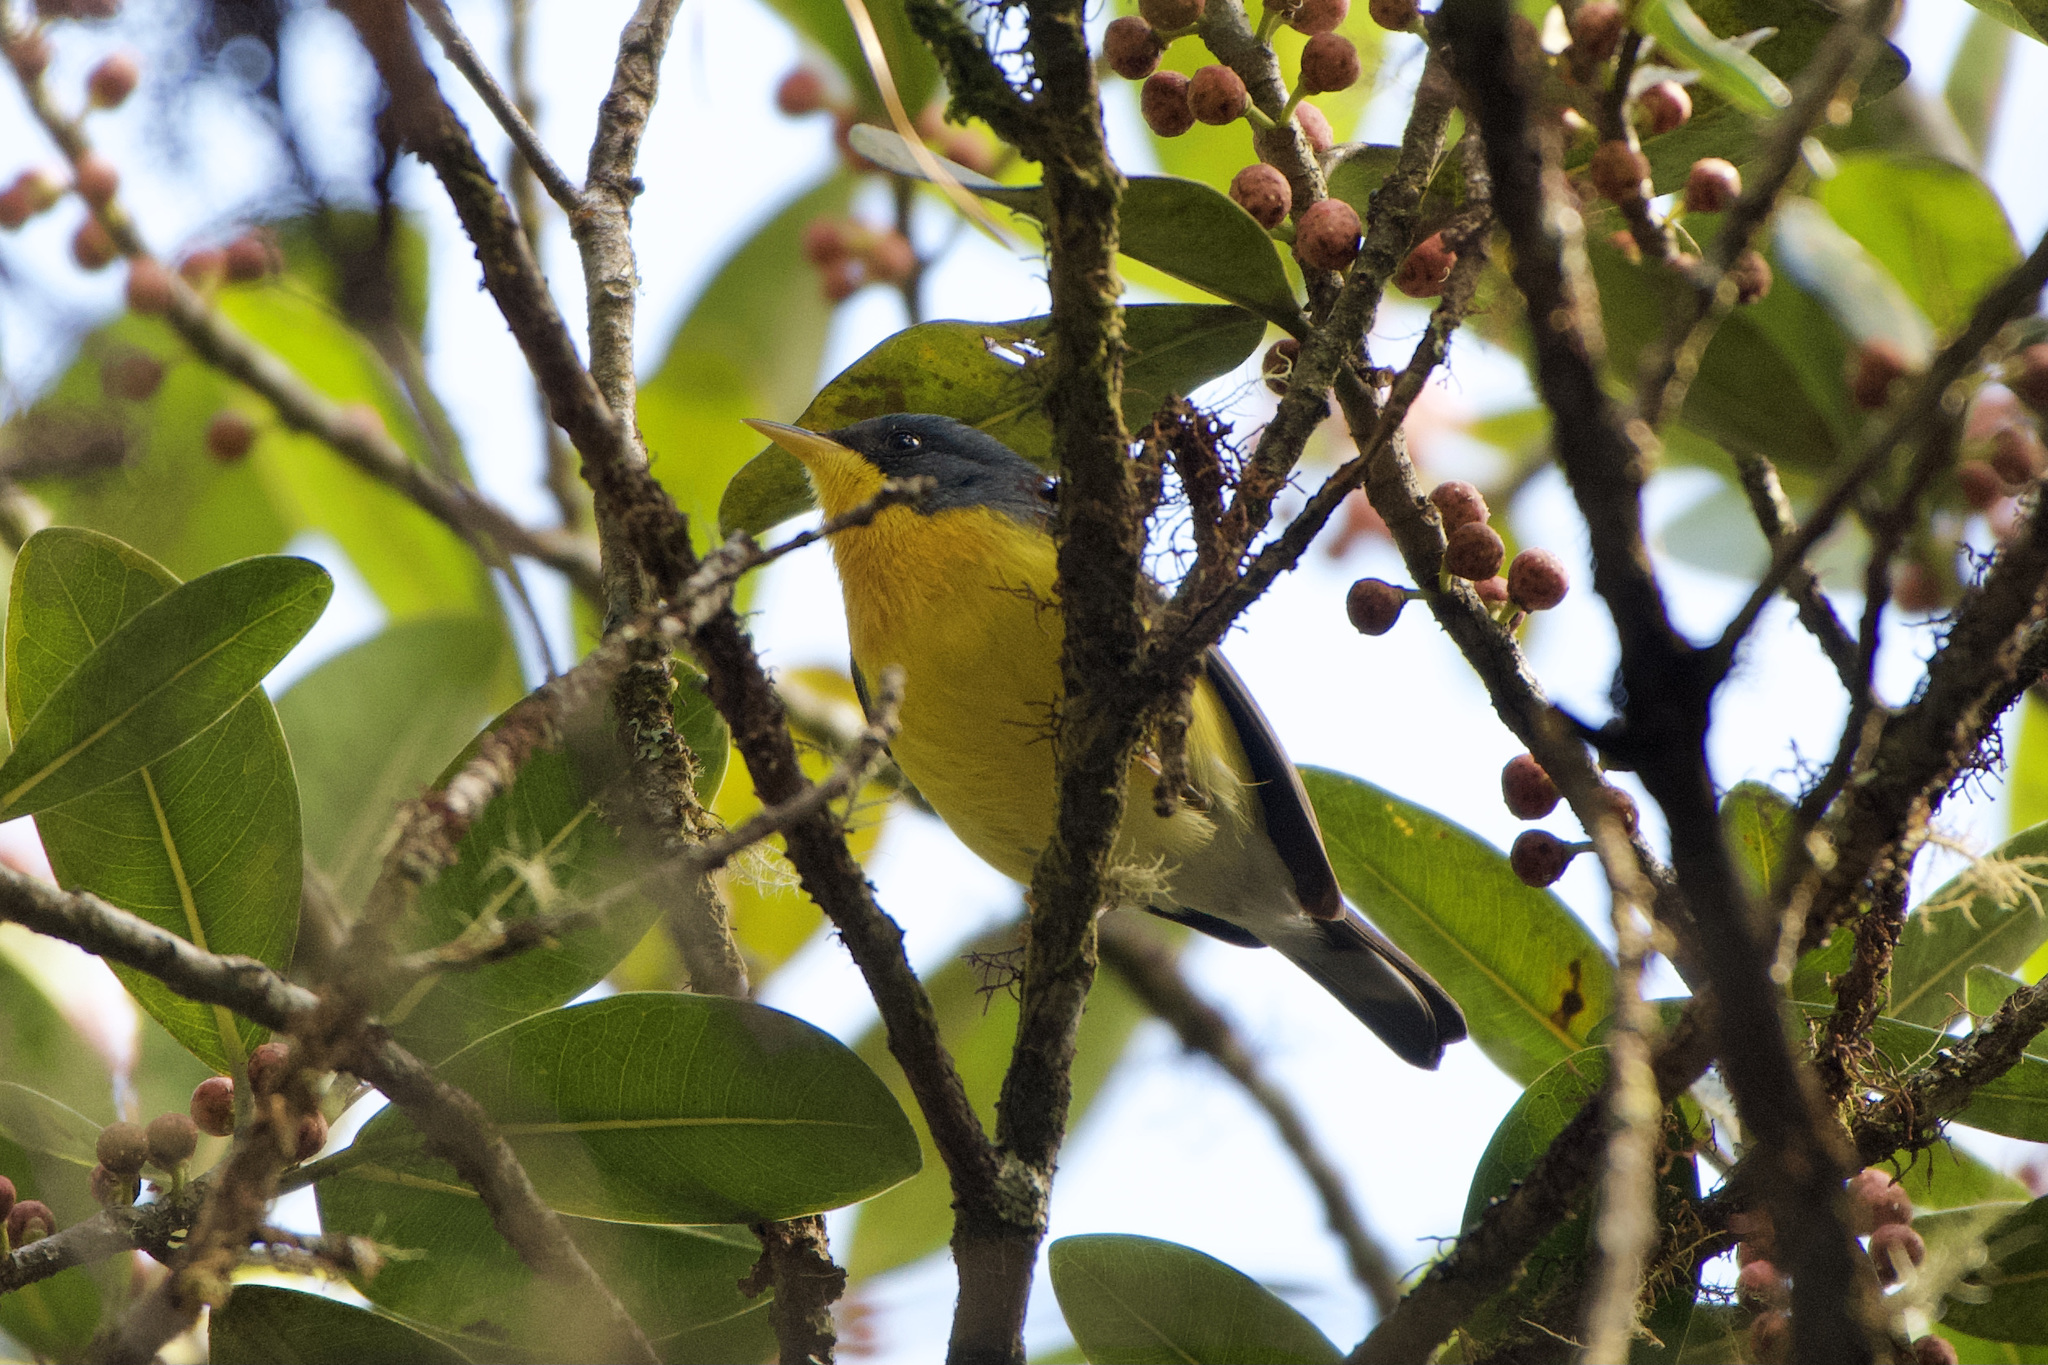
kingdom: Animalia
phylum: Chordata
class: Aves
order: Passeriformes
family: Parulidae
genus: Setophaga
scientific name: Setophaga pitiayumi
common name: Tropical parula
